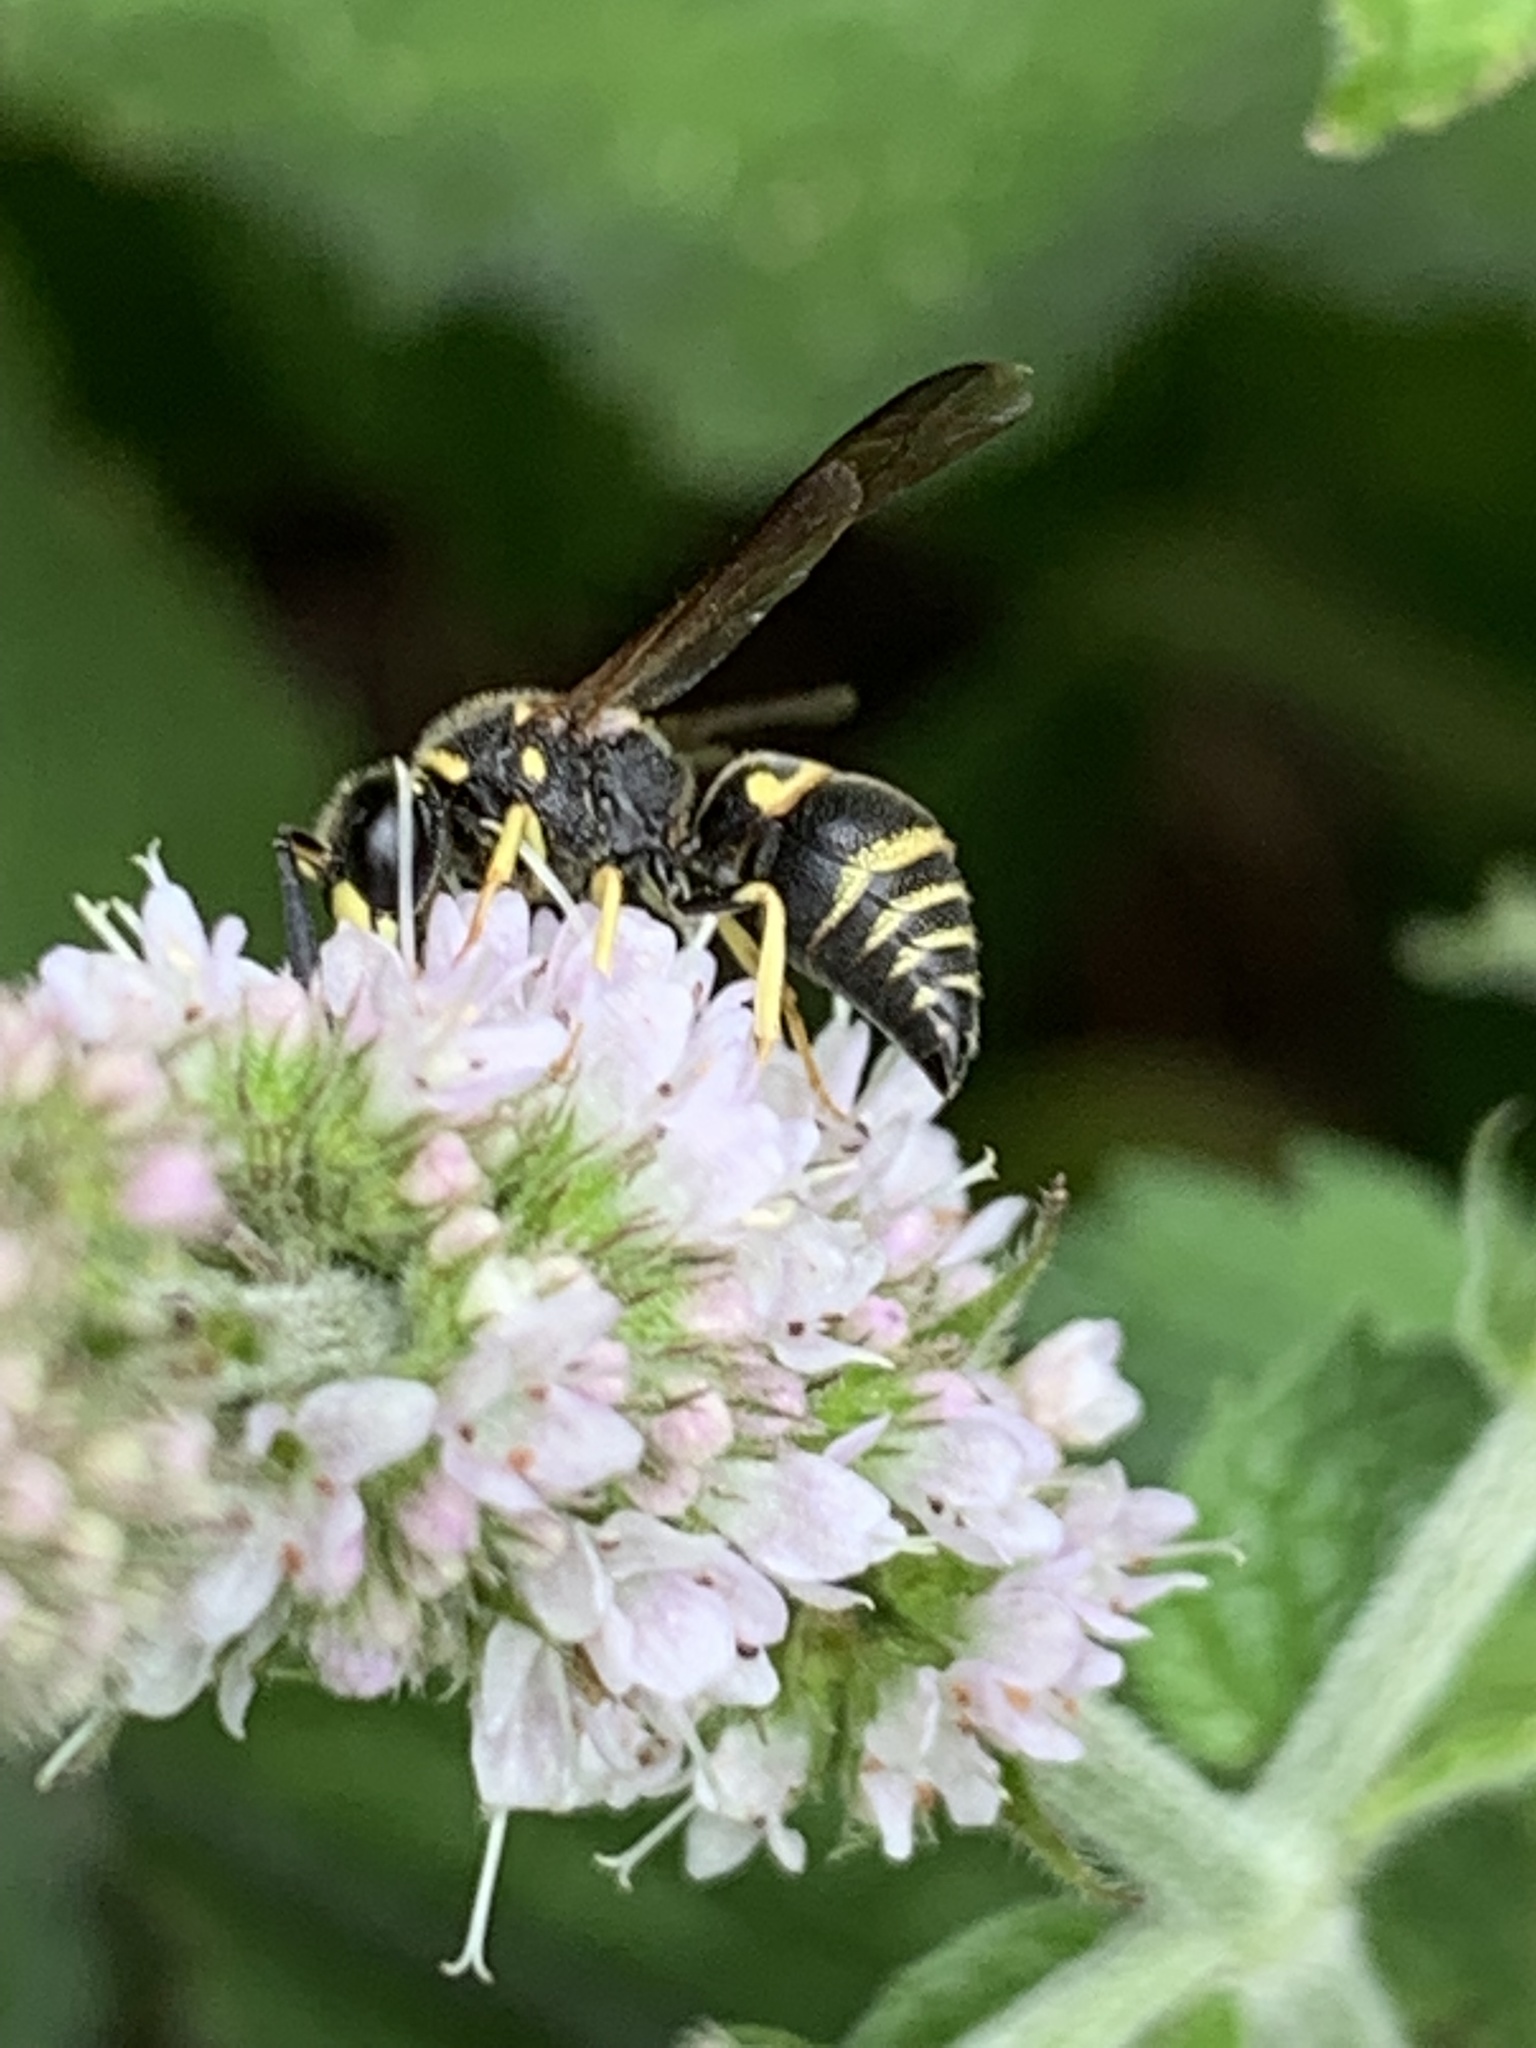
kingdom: Animalia
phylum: Arthropoda
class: Insecta
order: Hymenoptera
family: Eumenidae
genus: Euodynerus
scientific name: Euodynerus foraminatus
